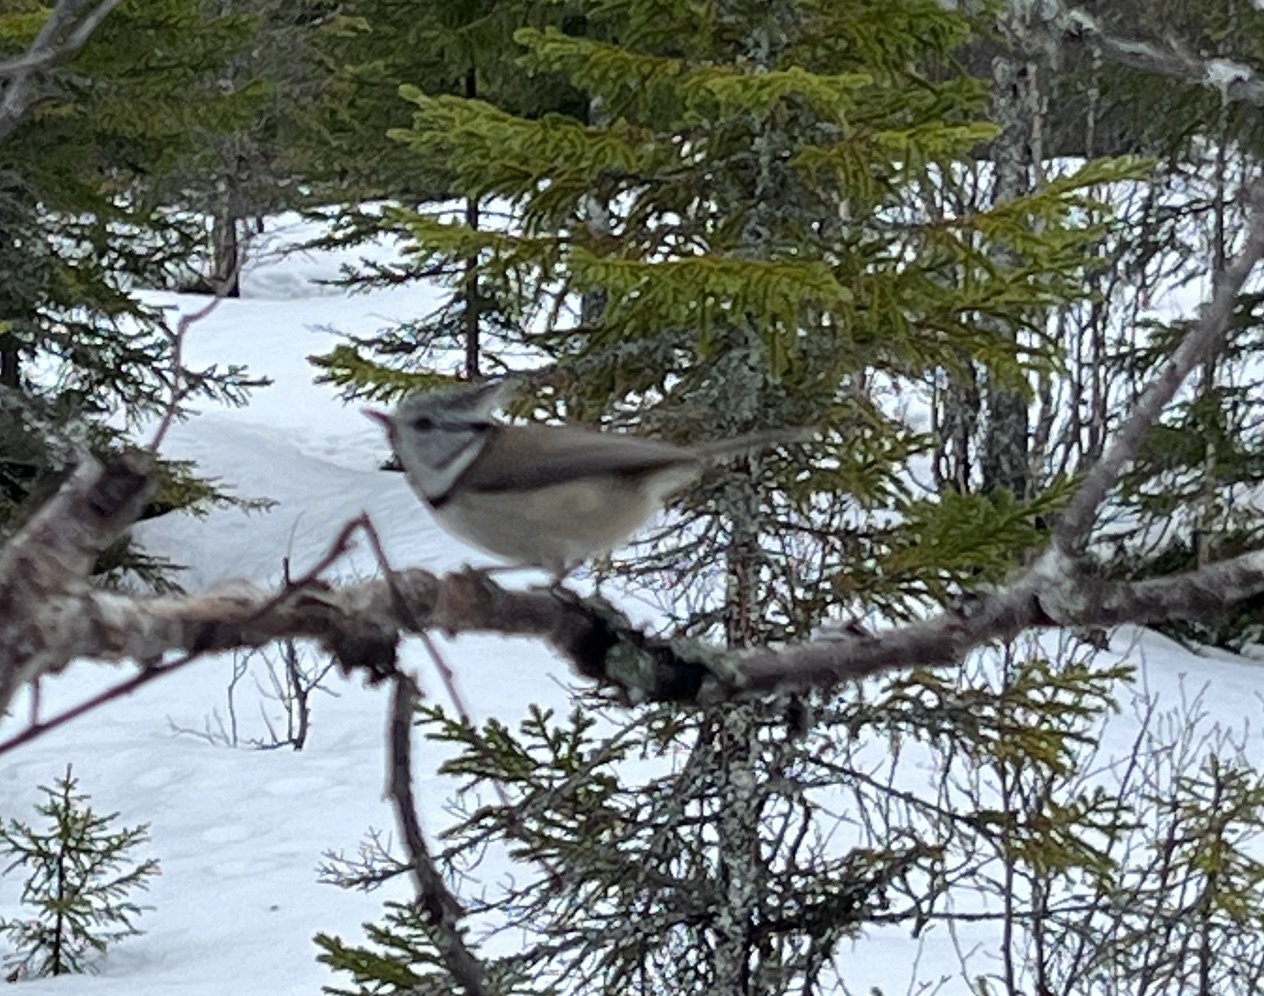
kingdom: Animalia
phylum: Chordata
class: Aves
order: Passeriformes
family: Paridae
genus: Lophophanes
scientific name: Lophophanes cristatus
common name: European crested tit
